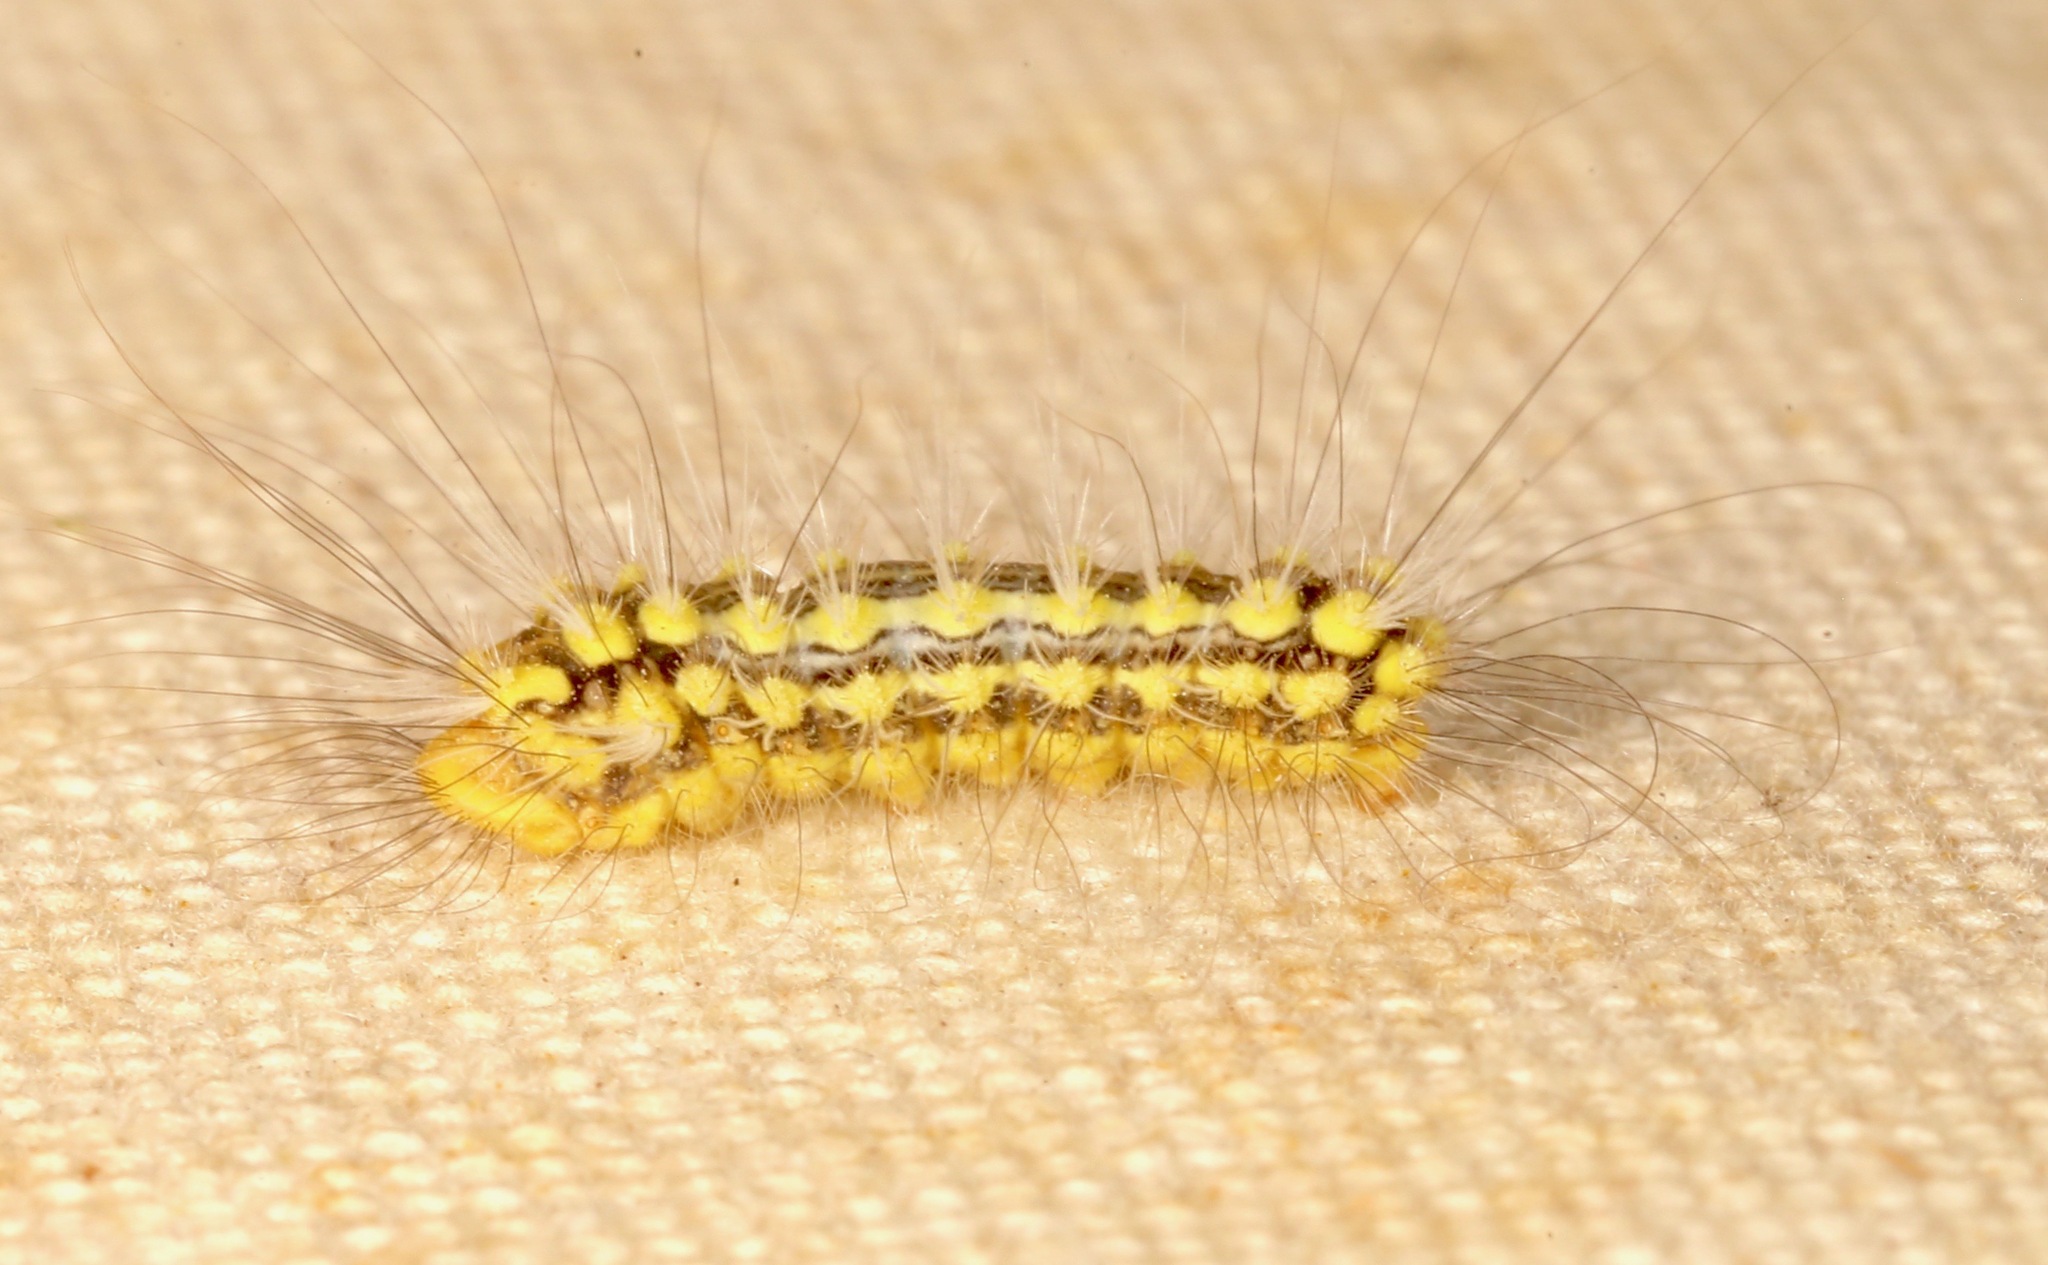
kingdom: Animalia
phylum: Arthropoda
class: Insecta
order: Lepidoptera
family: Megalopygidae
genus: Norape
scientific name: Norape tener
